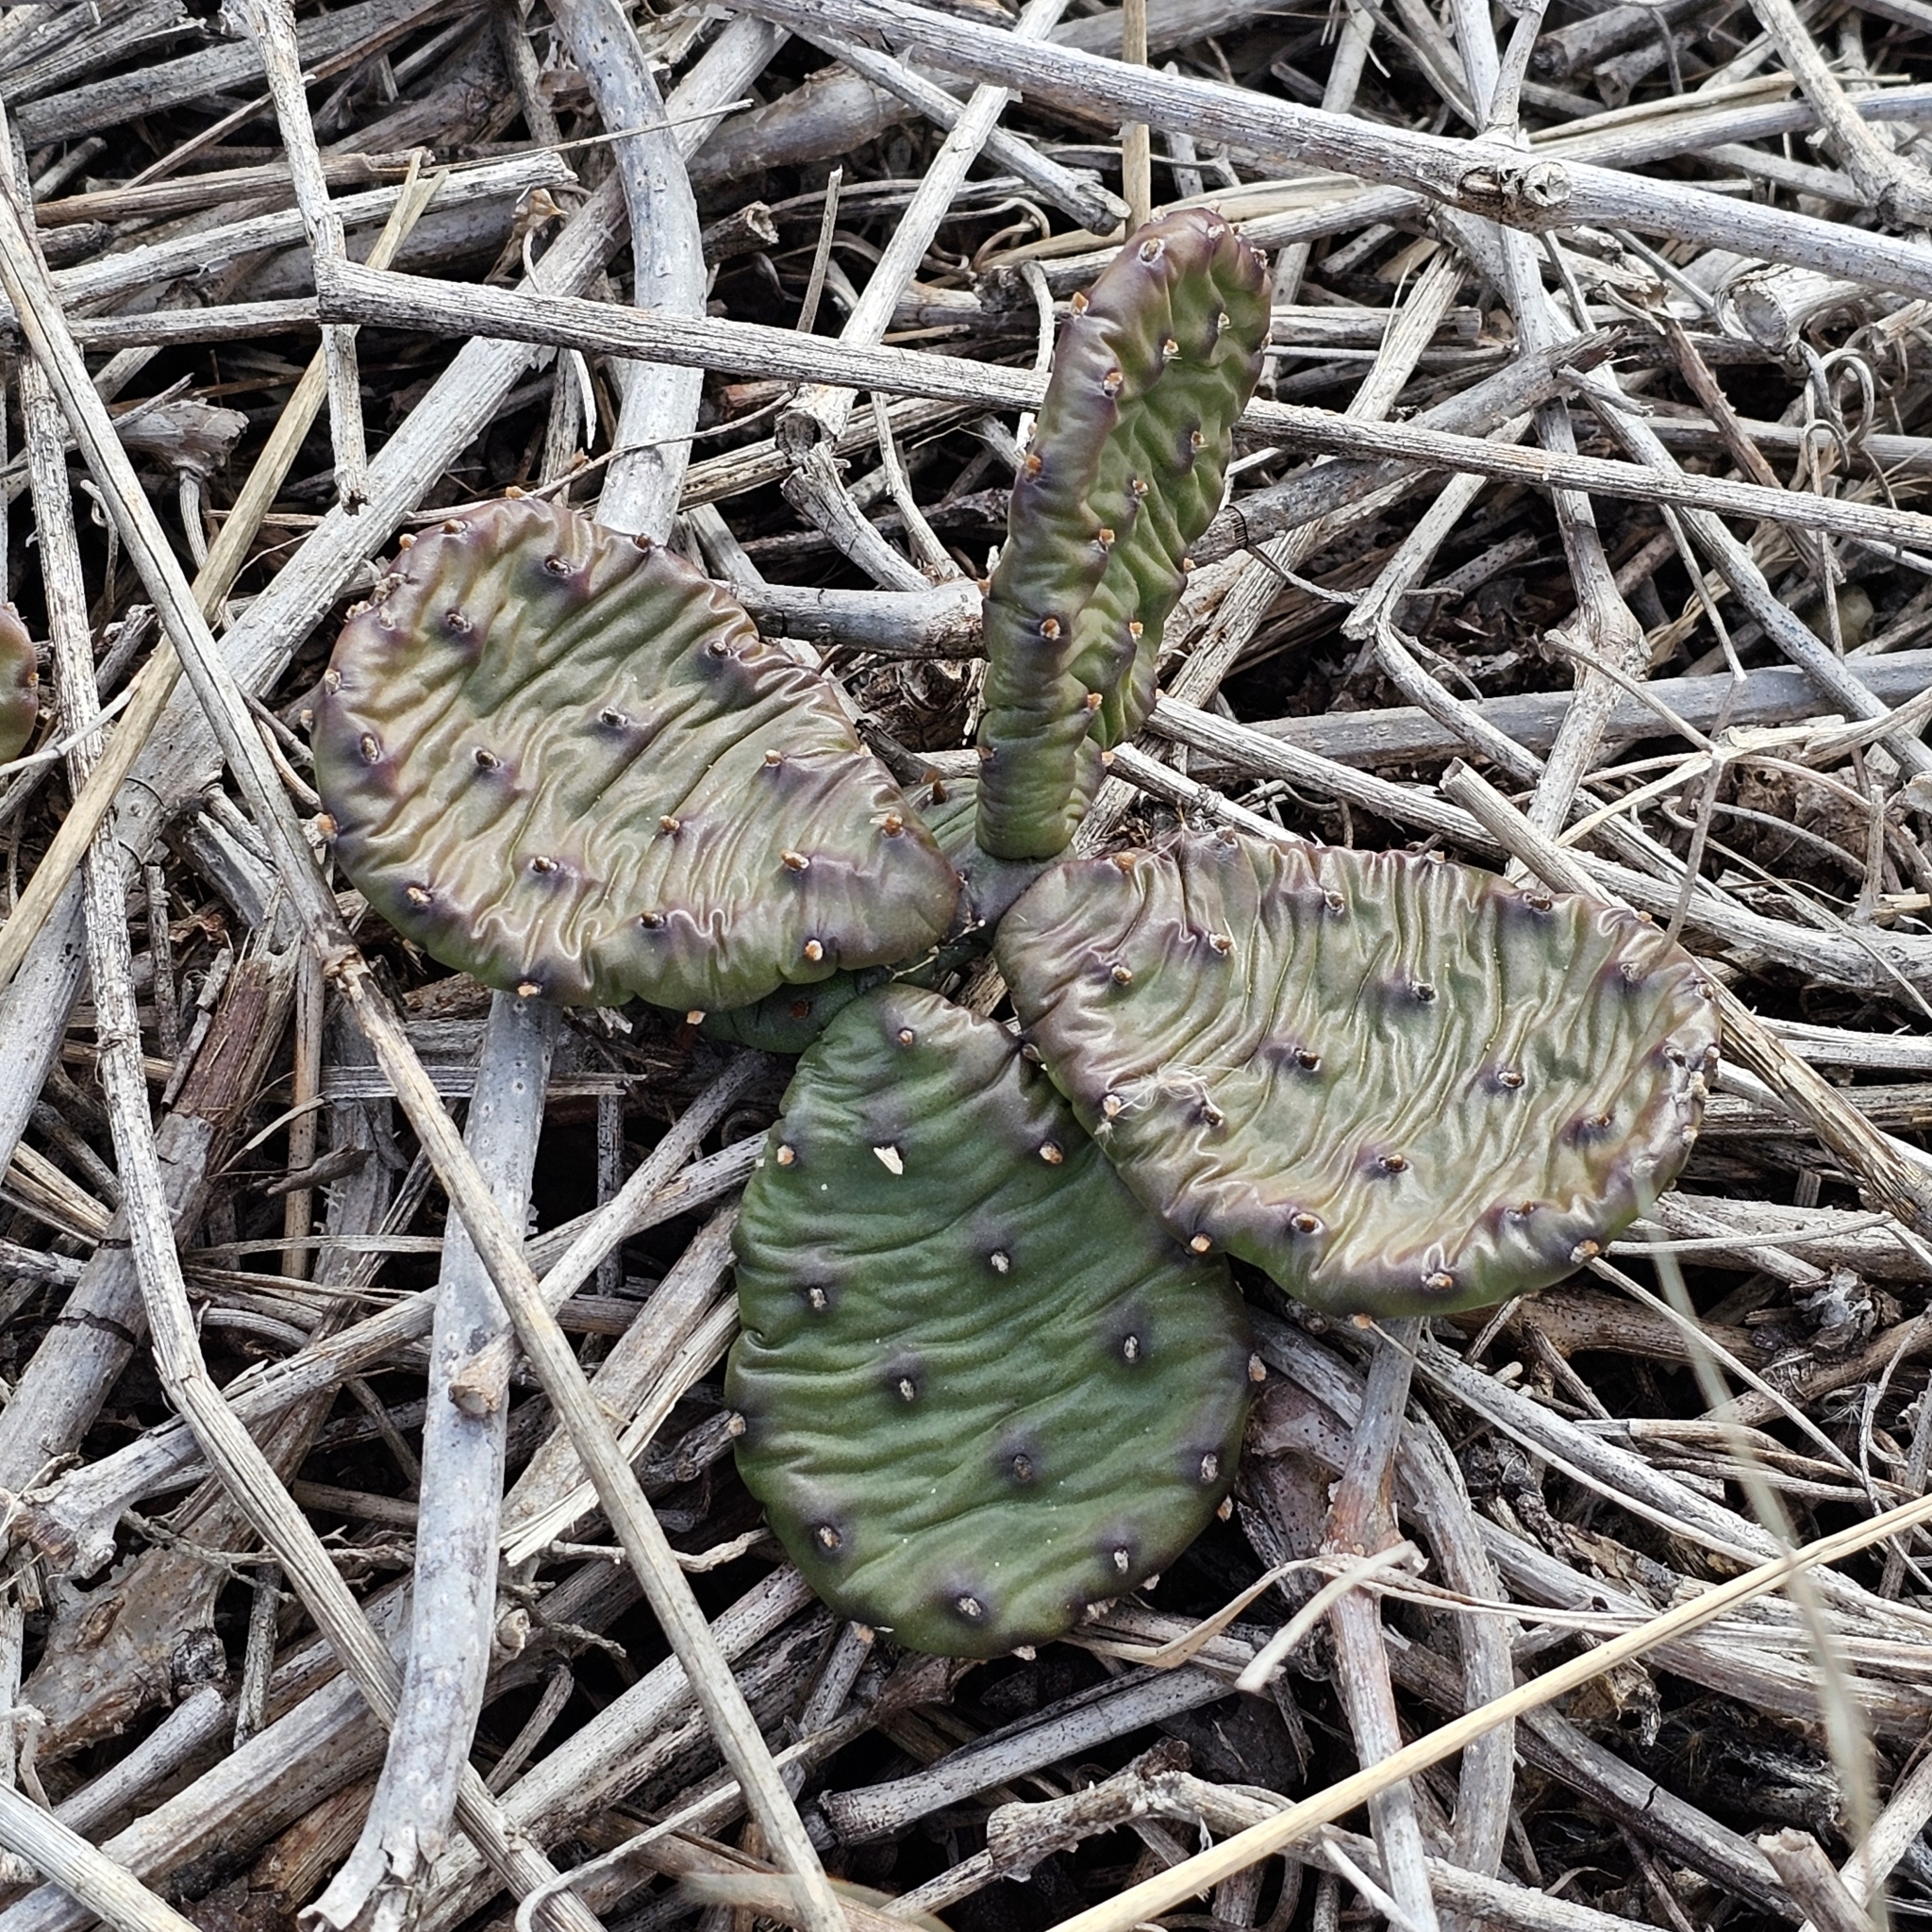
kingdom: Plantae
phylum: Tracheophyta
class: Magnoliopsida
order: Caryophyllales
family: Cactaceae
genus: Opuntia
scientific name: Opuntia humifusa
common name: Eastern prickly-pear
